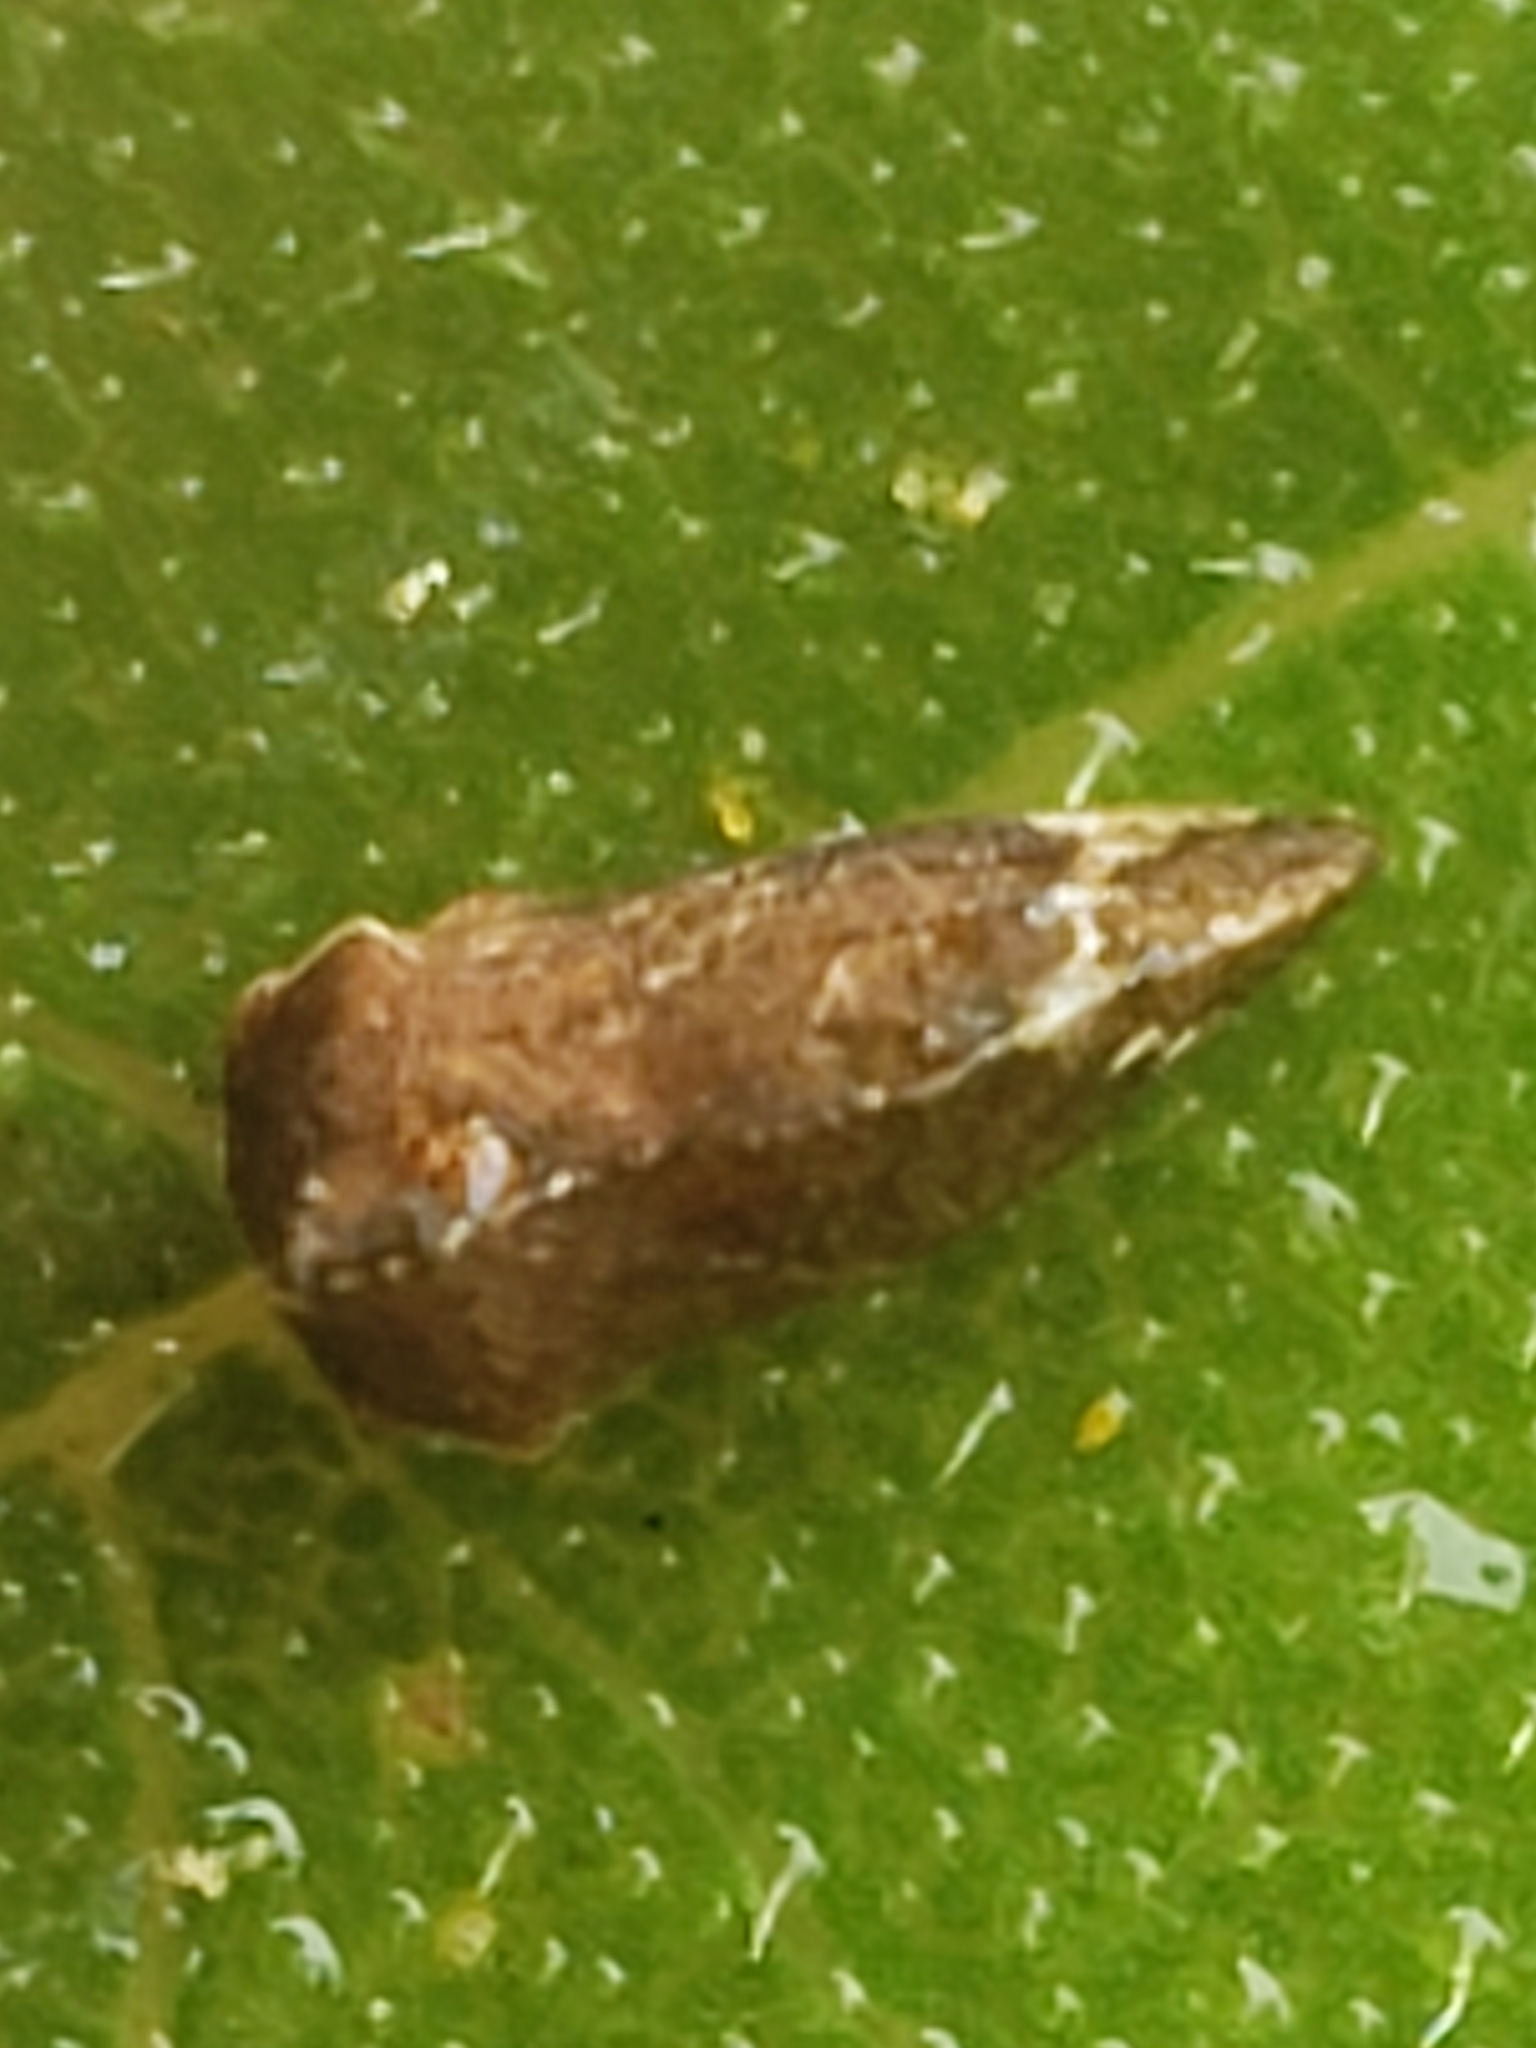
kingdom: Animalia
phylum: Arthropoda
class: Insecta
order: Hemiptera
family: Membracidae
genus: Entylia
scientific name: Entylia carinata
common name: Keeled treehopper
